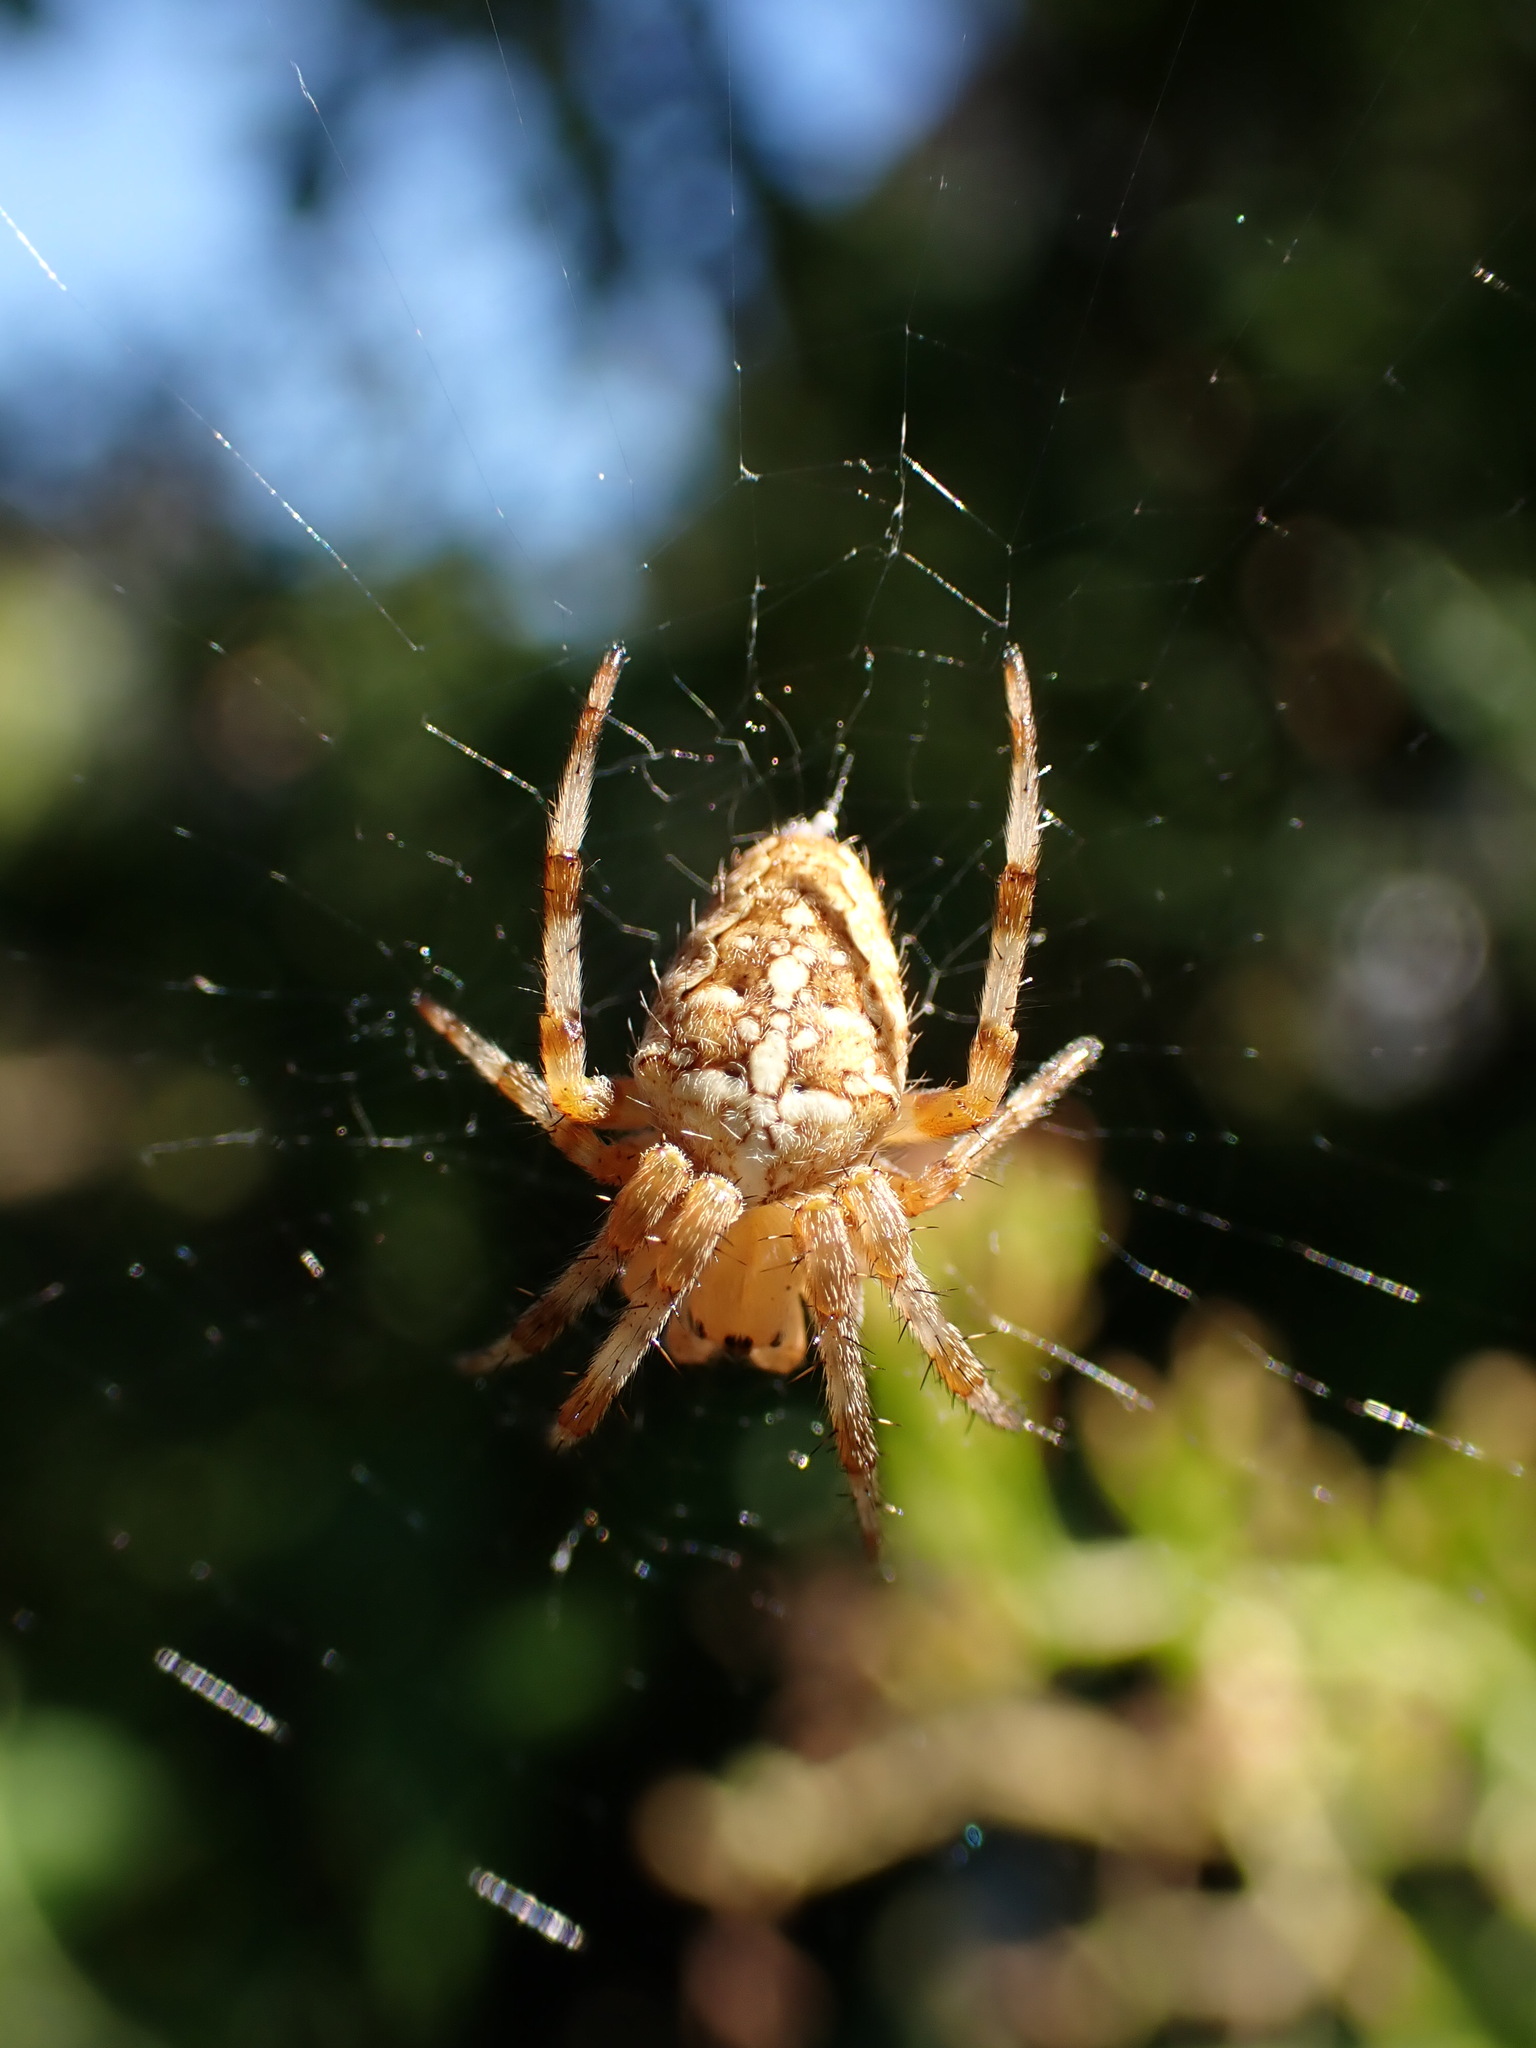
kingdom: Animalia
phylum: Arthropoda
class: Arachnida
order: Araneae
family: Araneidae
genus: Araneus
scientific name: Araneus diadematus
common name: Cross orbweaver
